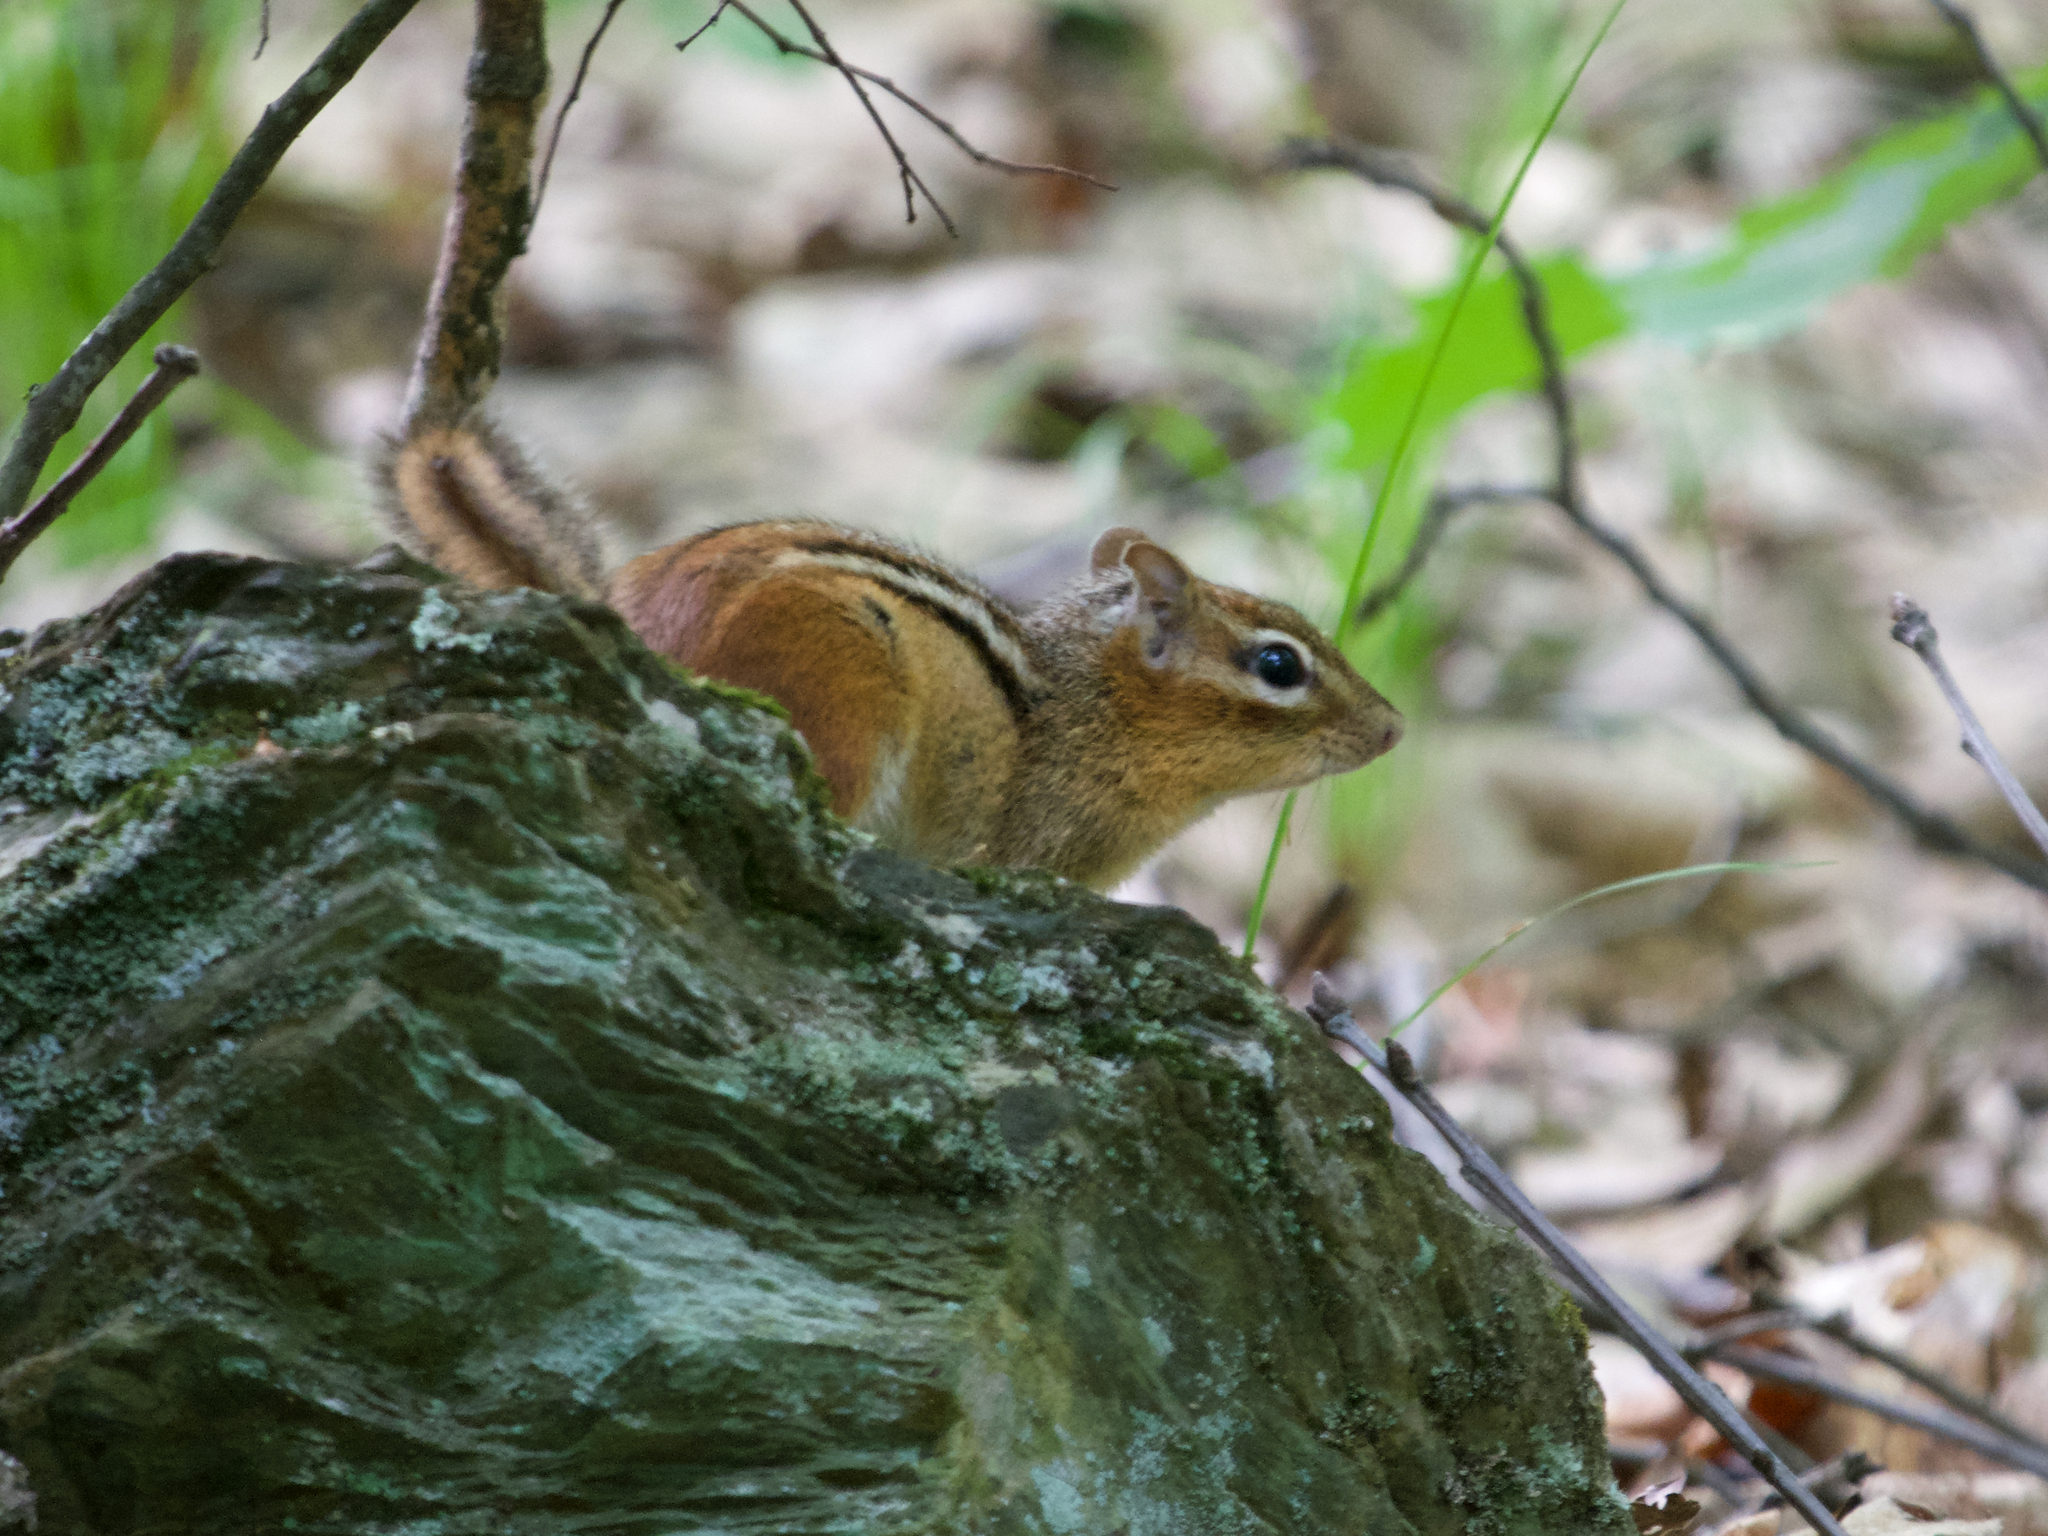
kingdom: Animalia
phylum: Chordata
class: Mammalia
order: Rodentia
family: Sciuridae
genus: Tamias
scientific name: Tamias striatus
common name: Eastern chipmunk
